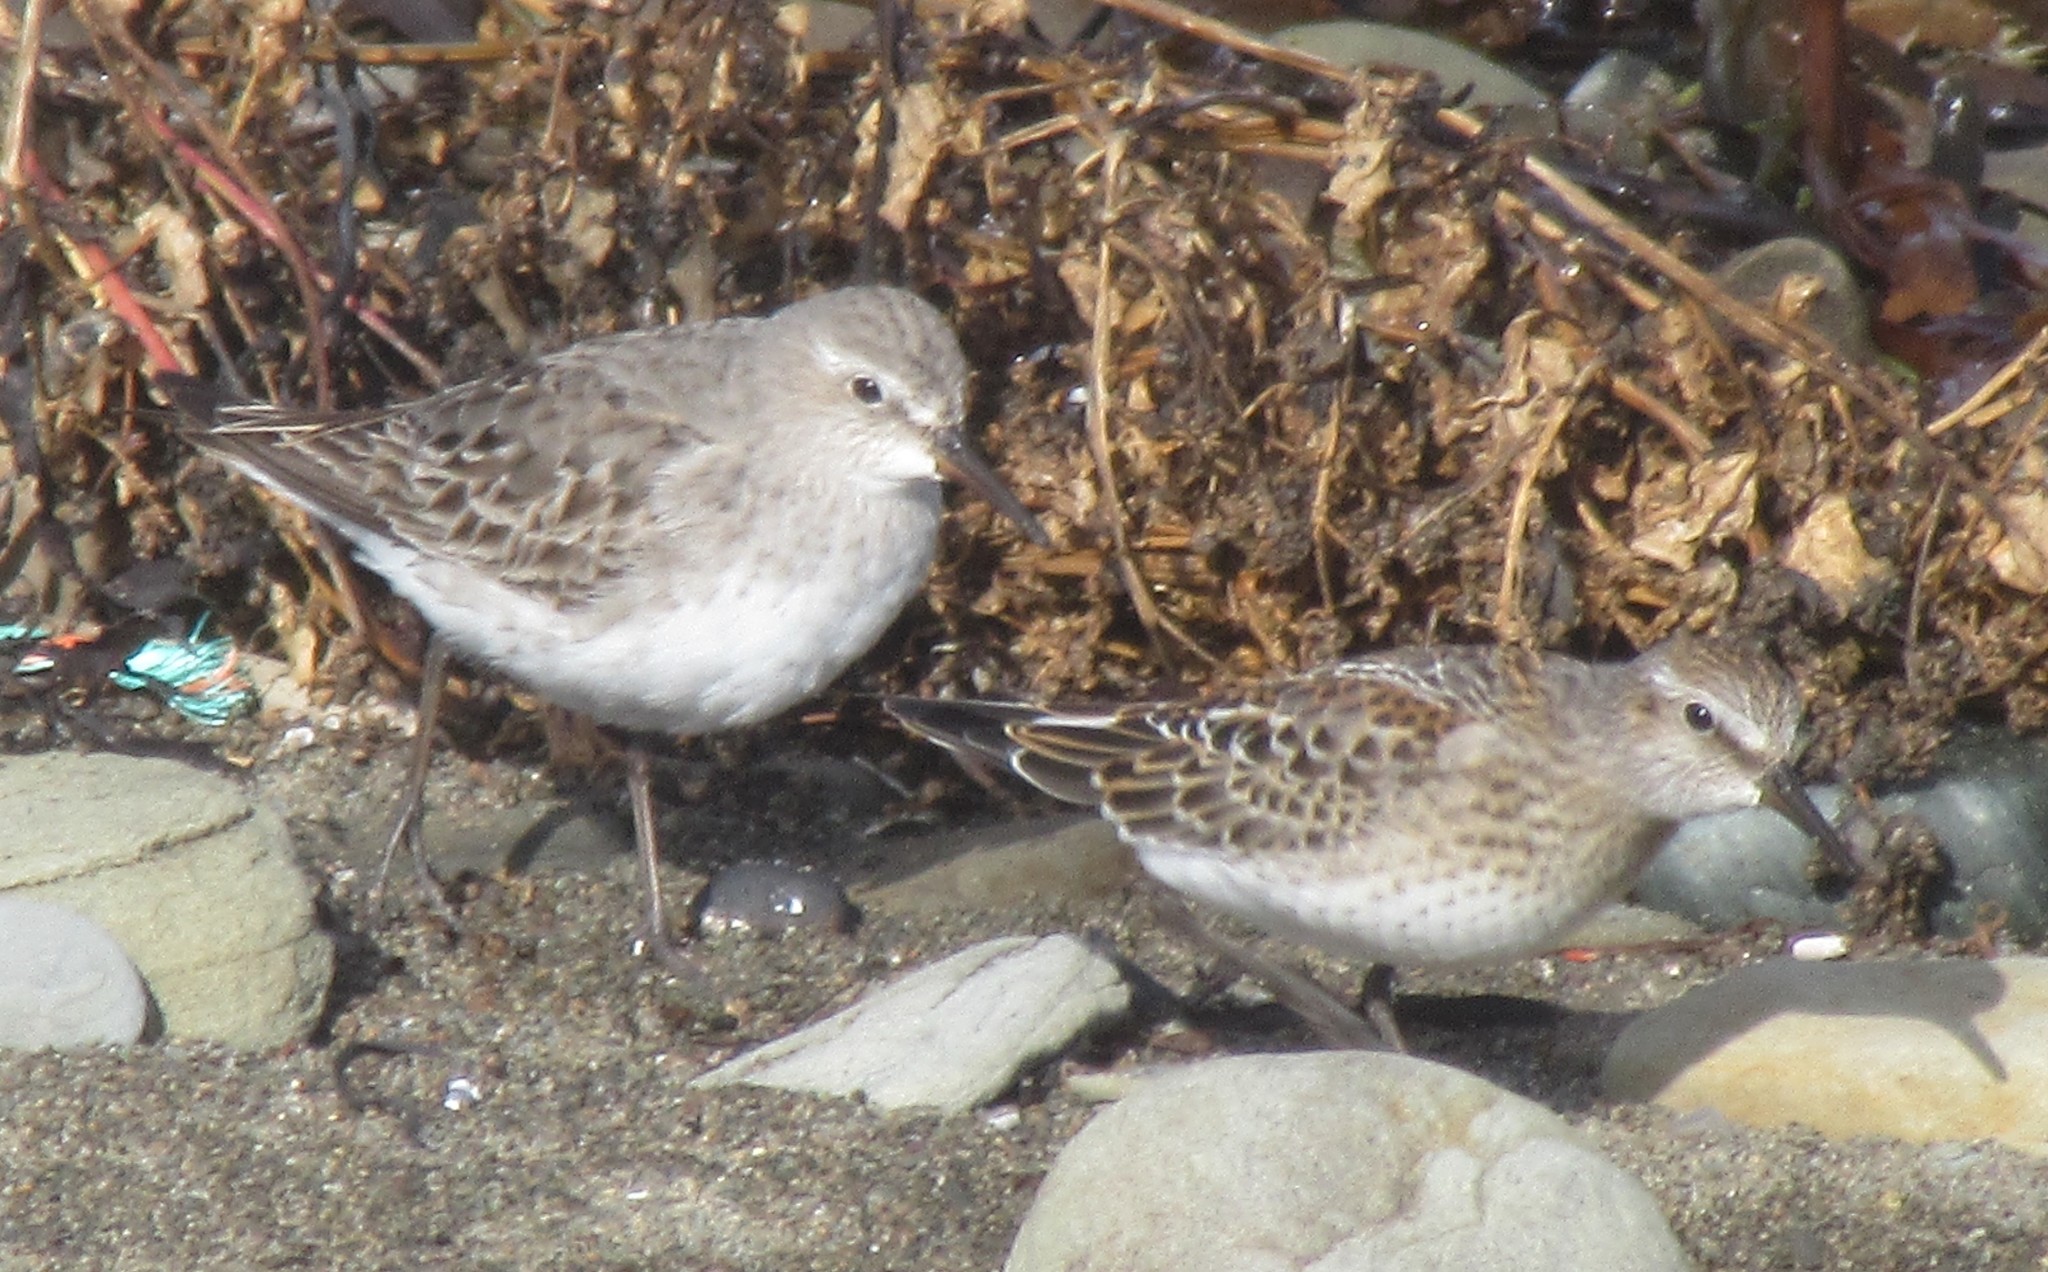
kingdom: Animalia
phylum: Chordata
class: Aves
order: Charadriiformes
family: Scolopacidae
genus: Calidris
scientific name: Calidris fuscicollis
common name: White-rumped sandpiper
